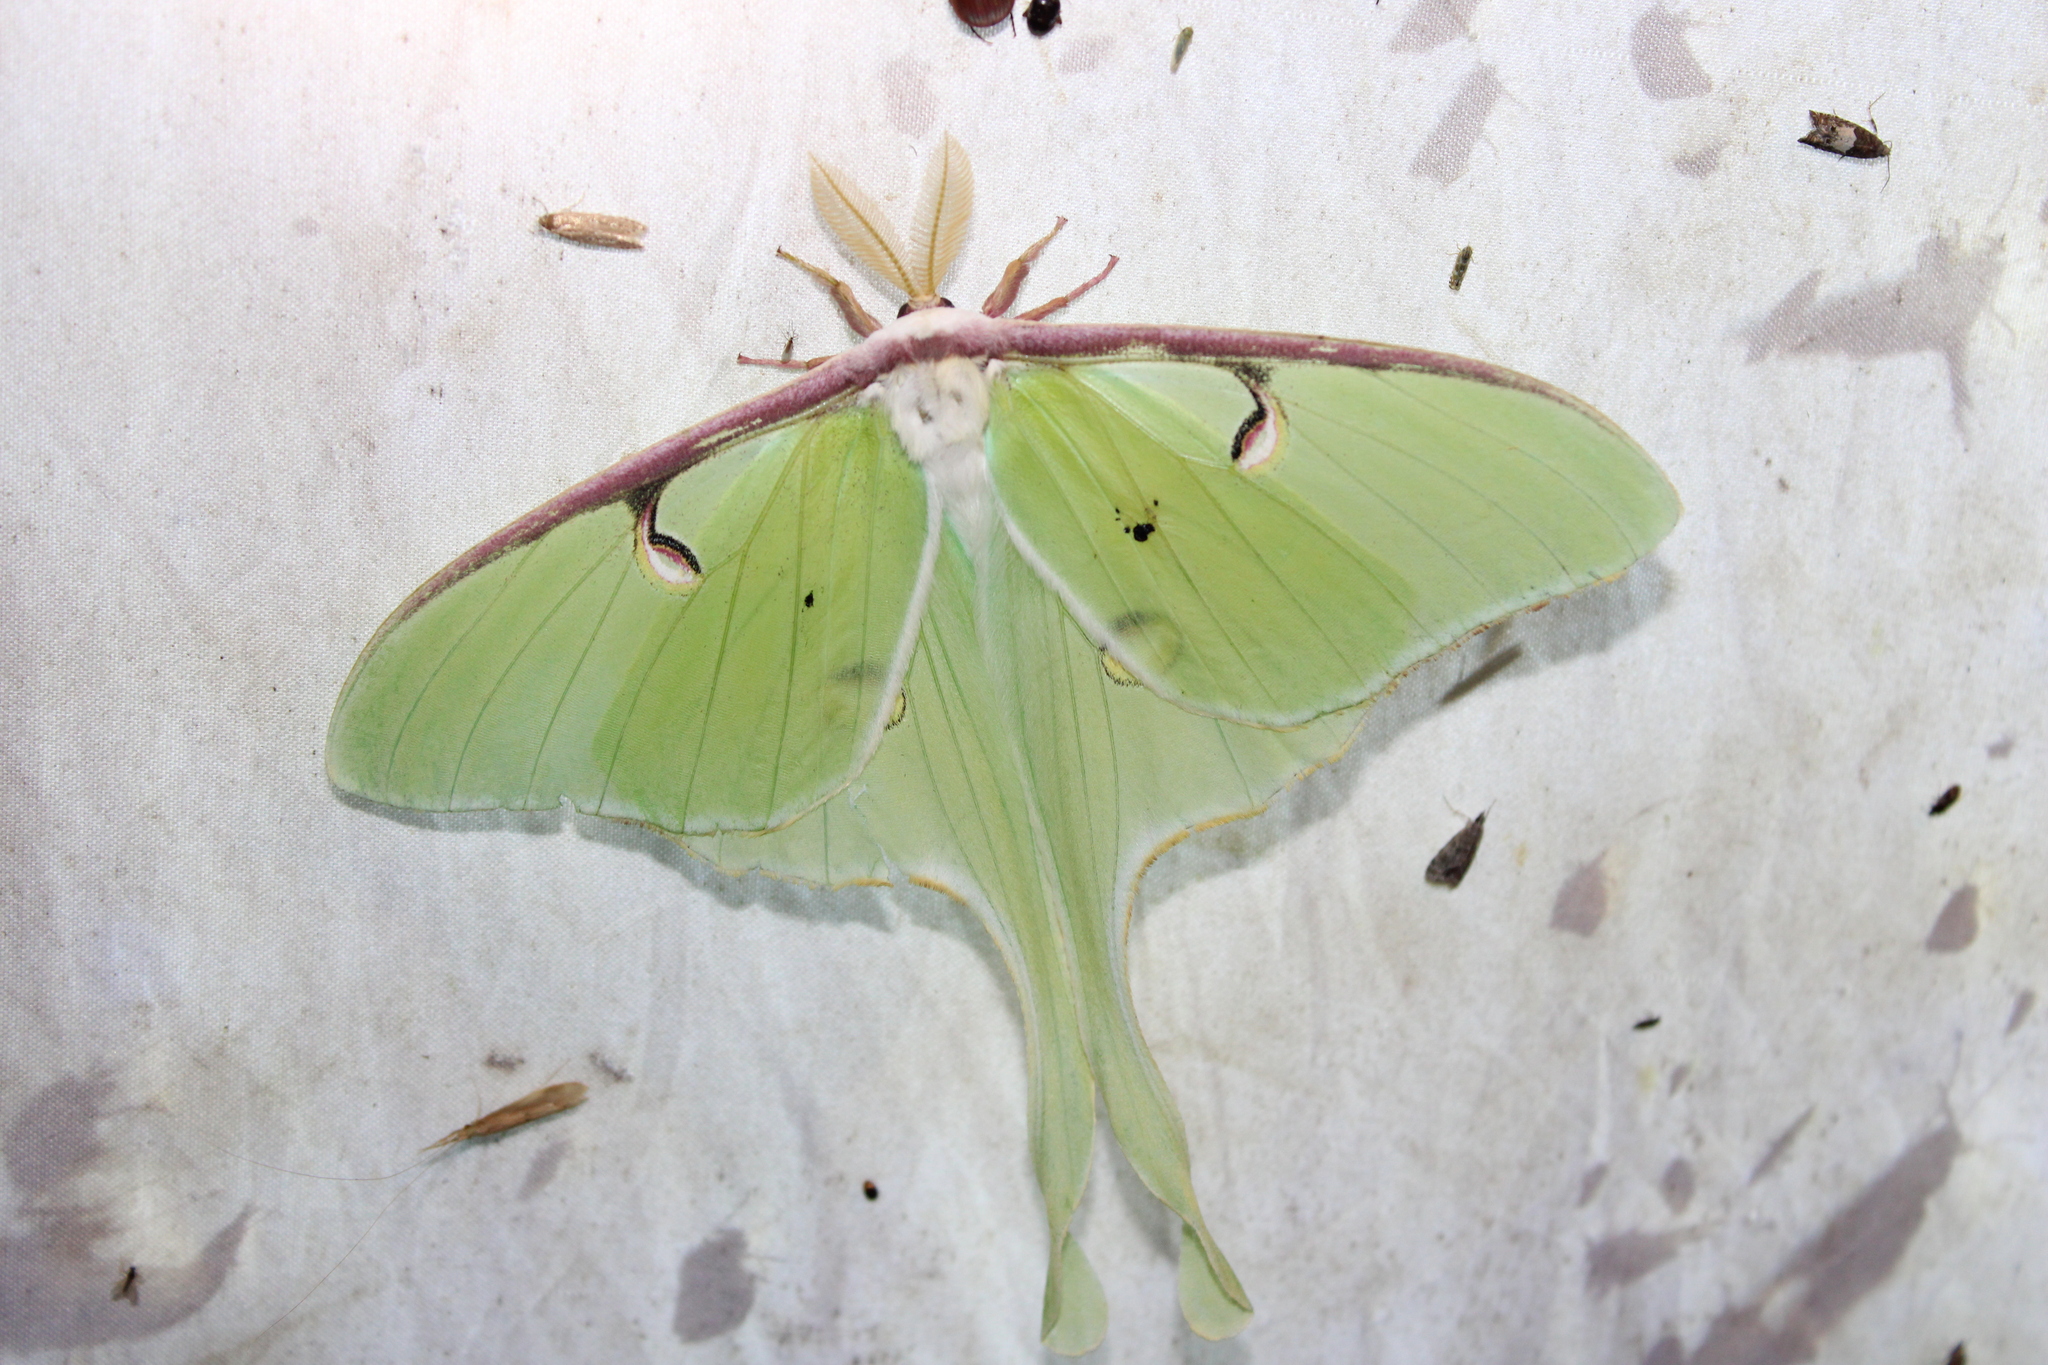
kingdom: Animalia
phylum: Arthropoda
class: Insecta
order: Lepidoptera
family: Saturniidae
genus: Actias
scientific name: Actias luna
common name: Luna moth
